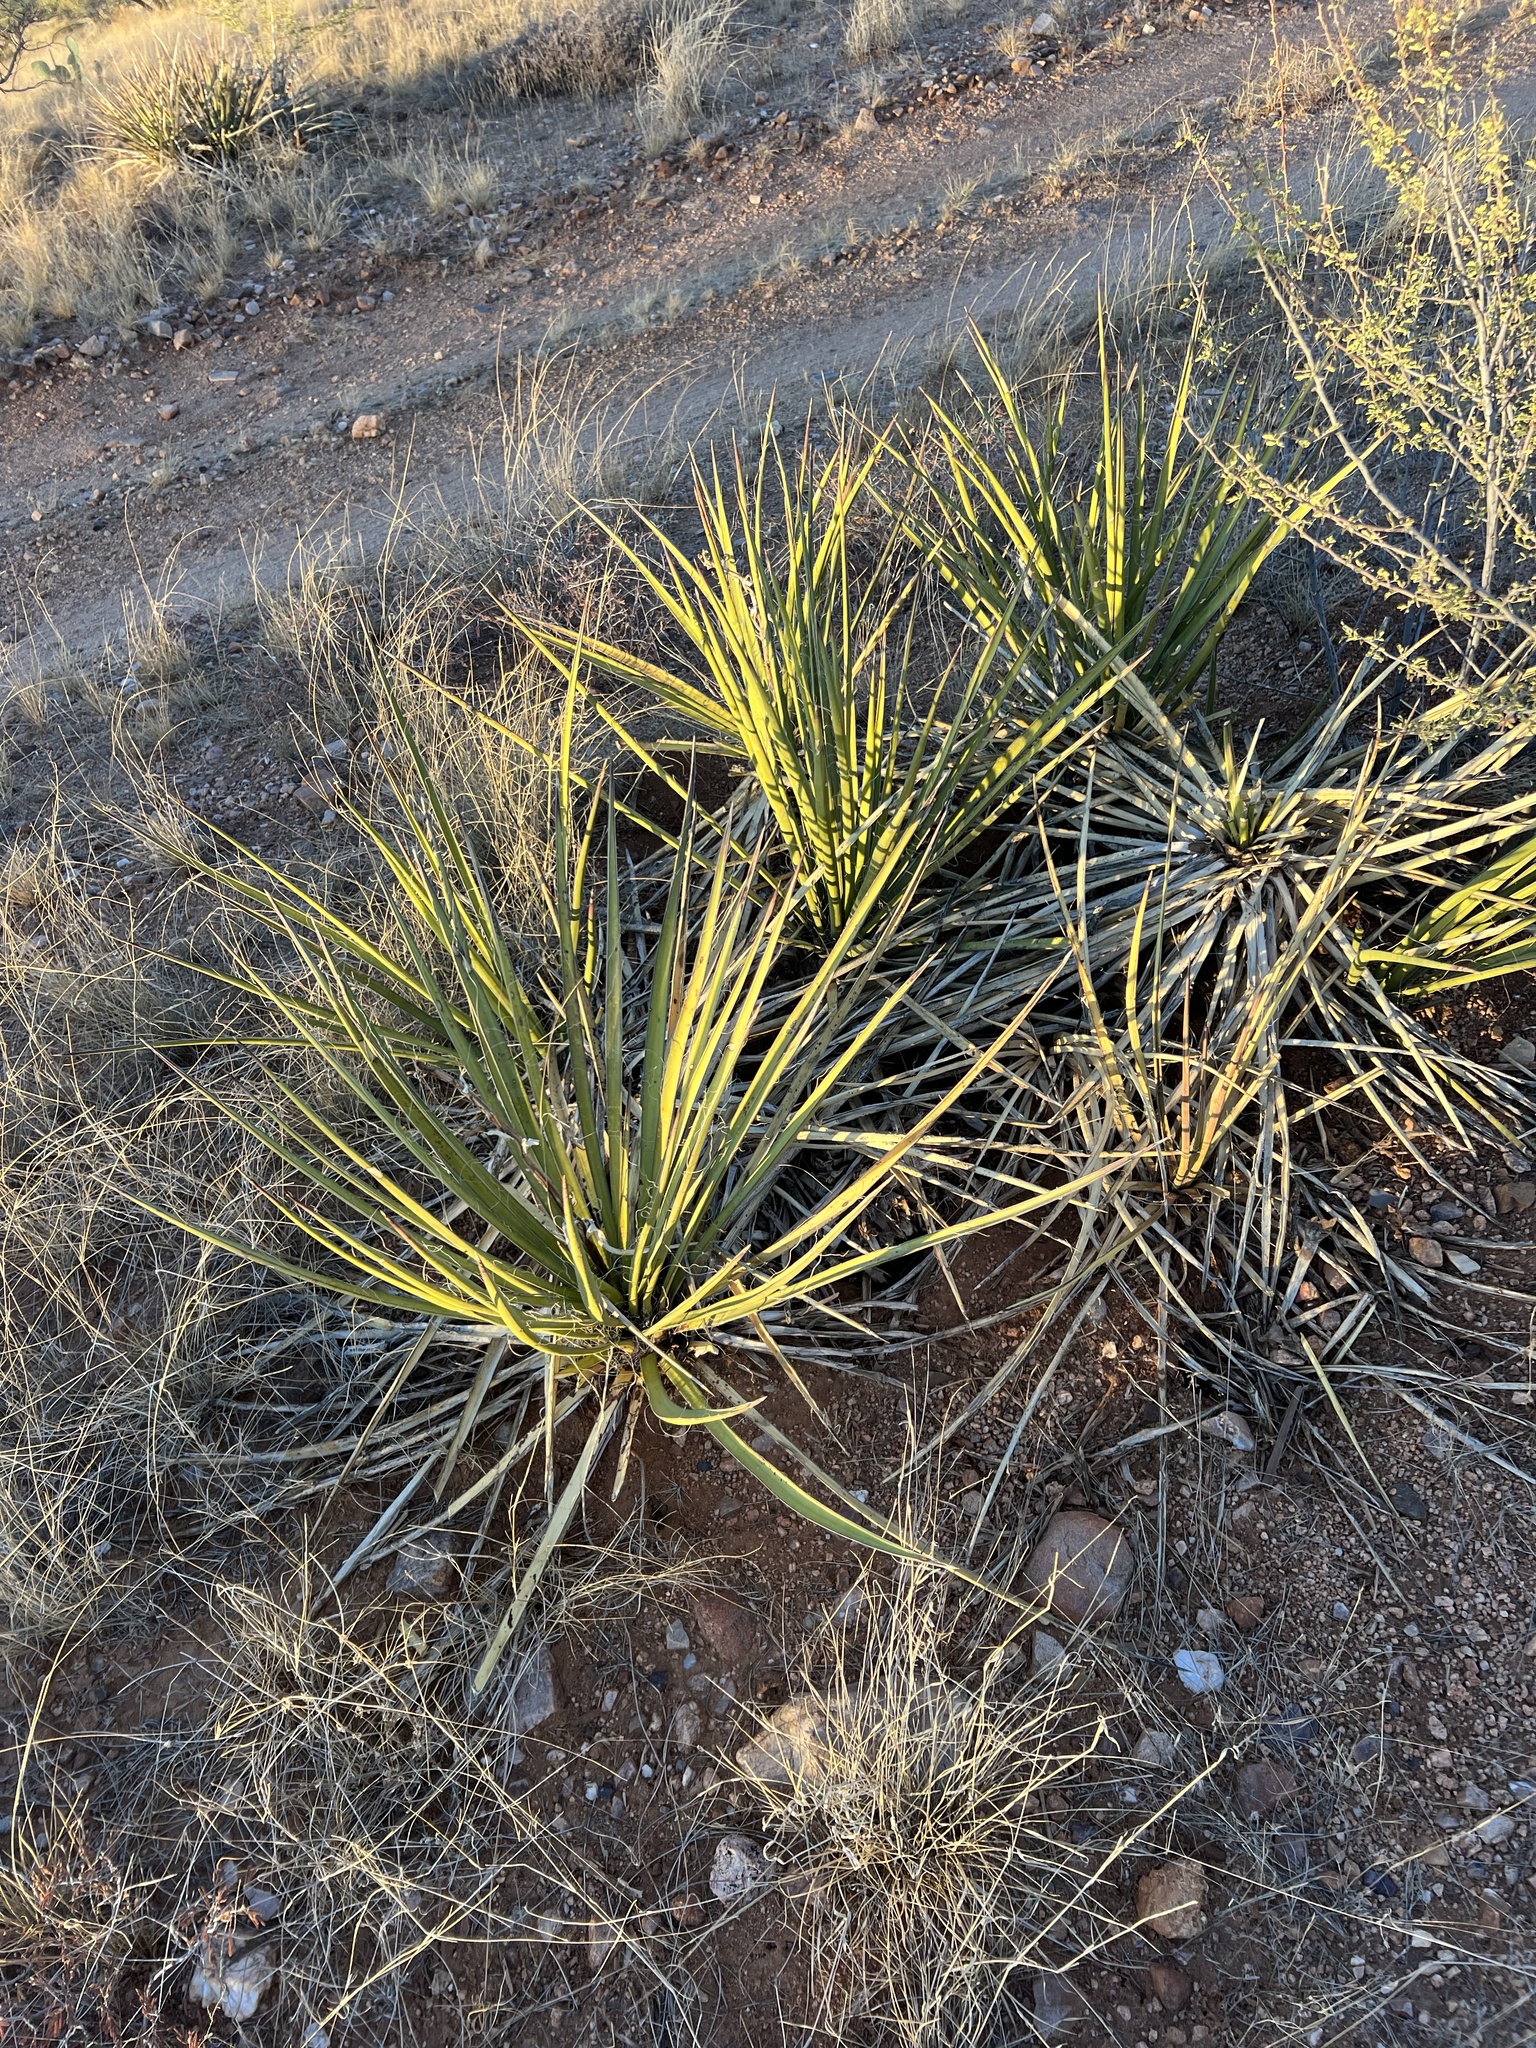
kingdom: Plantae
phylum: Tracheophyta
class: Liliopsida
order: Asparagales
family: Asparagaceae
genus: Yucca
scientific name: Yucca baccata
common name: Banana yucca
